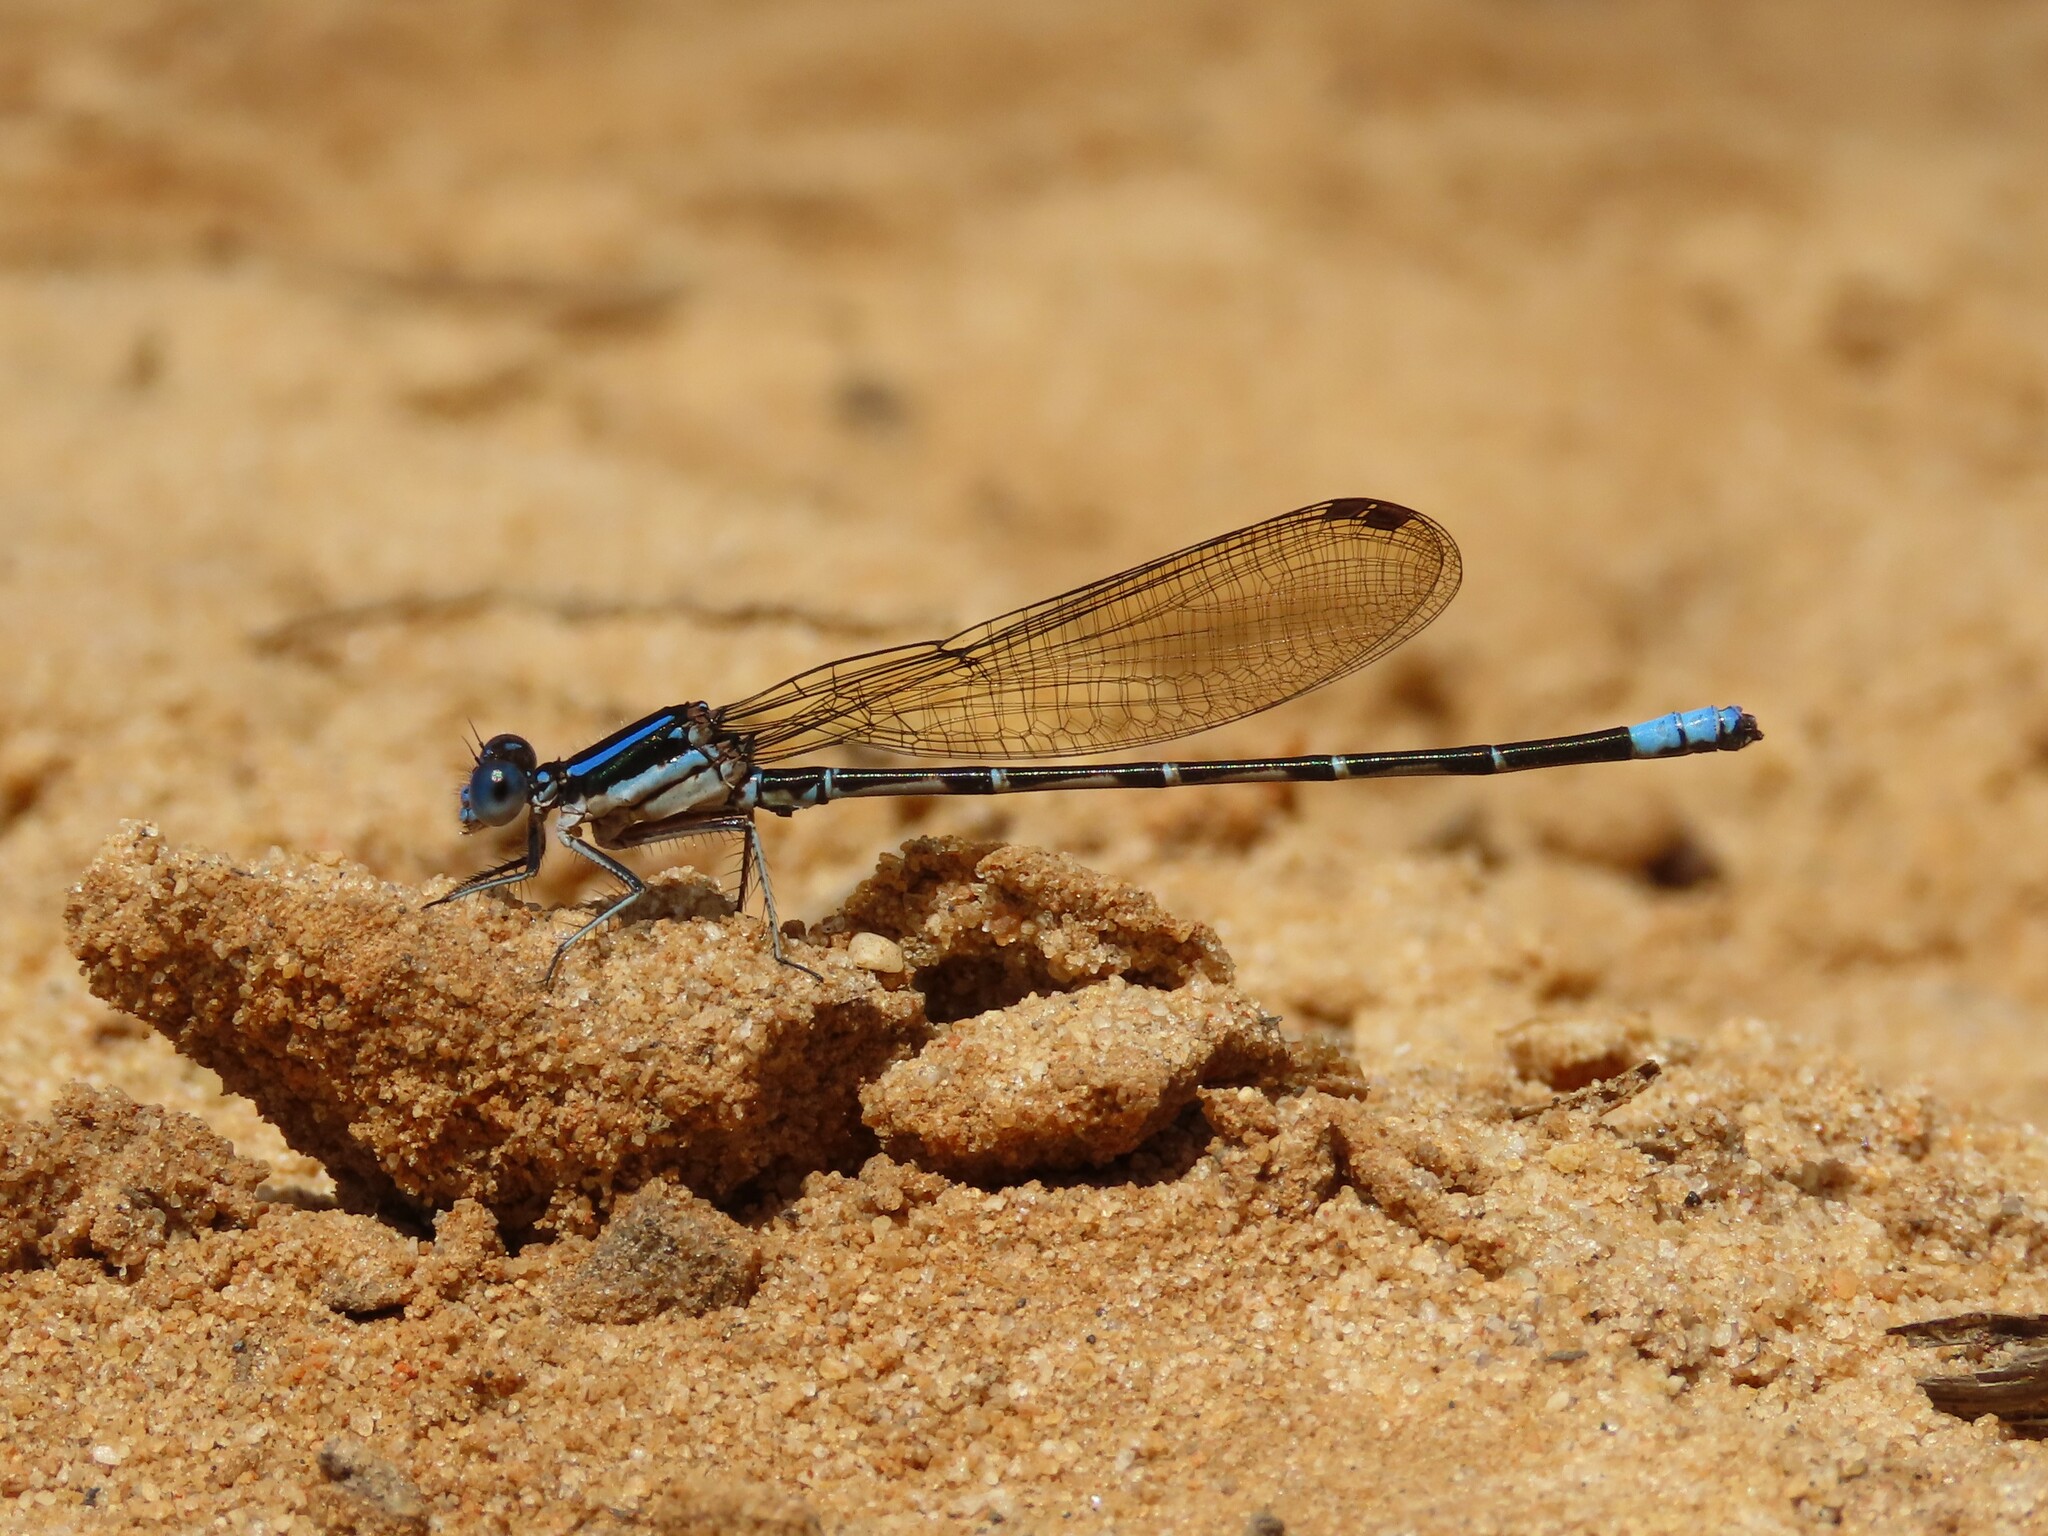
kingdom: Animalia
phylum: Arthropoda
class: Insecta
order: Odonata
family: Coenagrionidae
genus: Argia
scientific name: Argia sedula
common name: Blue-ringed dancer
